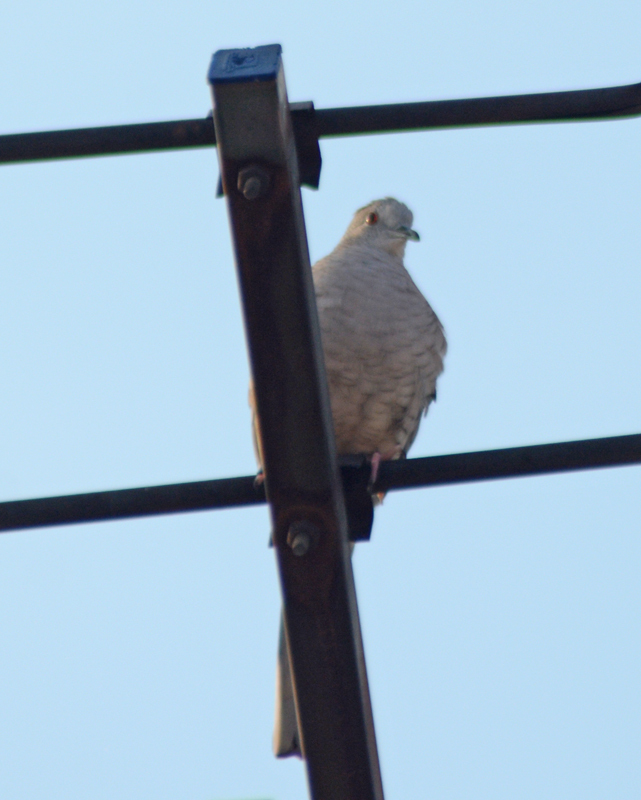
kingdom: Animalia
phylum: Chordata
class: Aves
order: Columbiformes
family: Columbidae
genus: Columbina
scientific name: Columbina inca
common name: Inca dove
